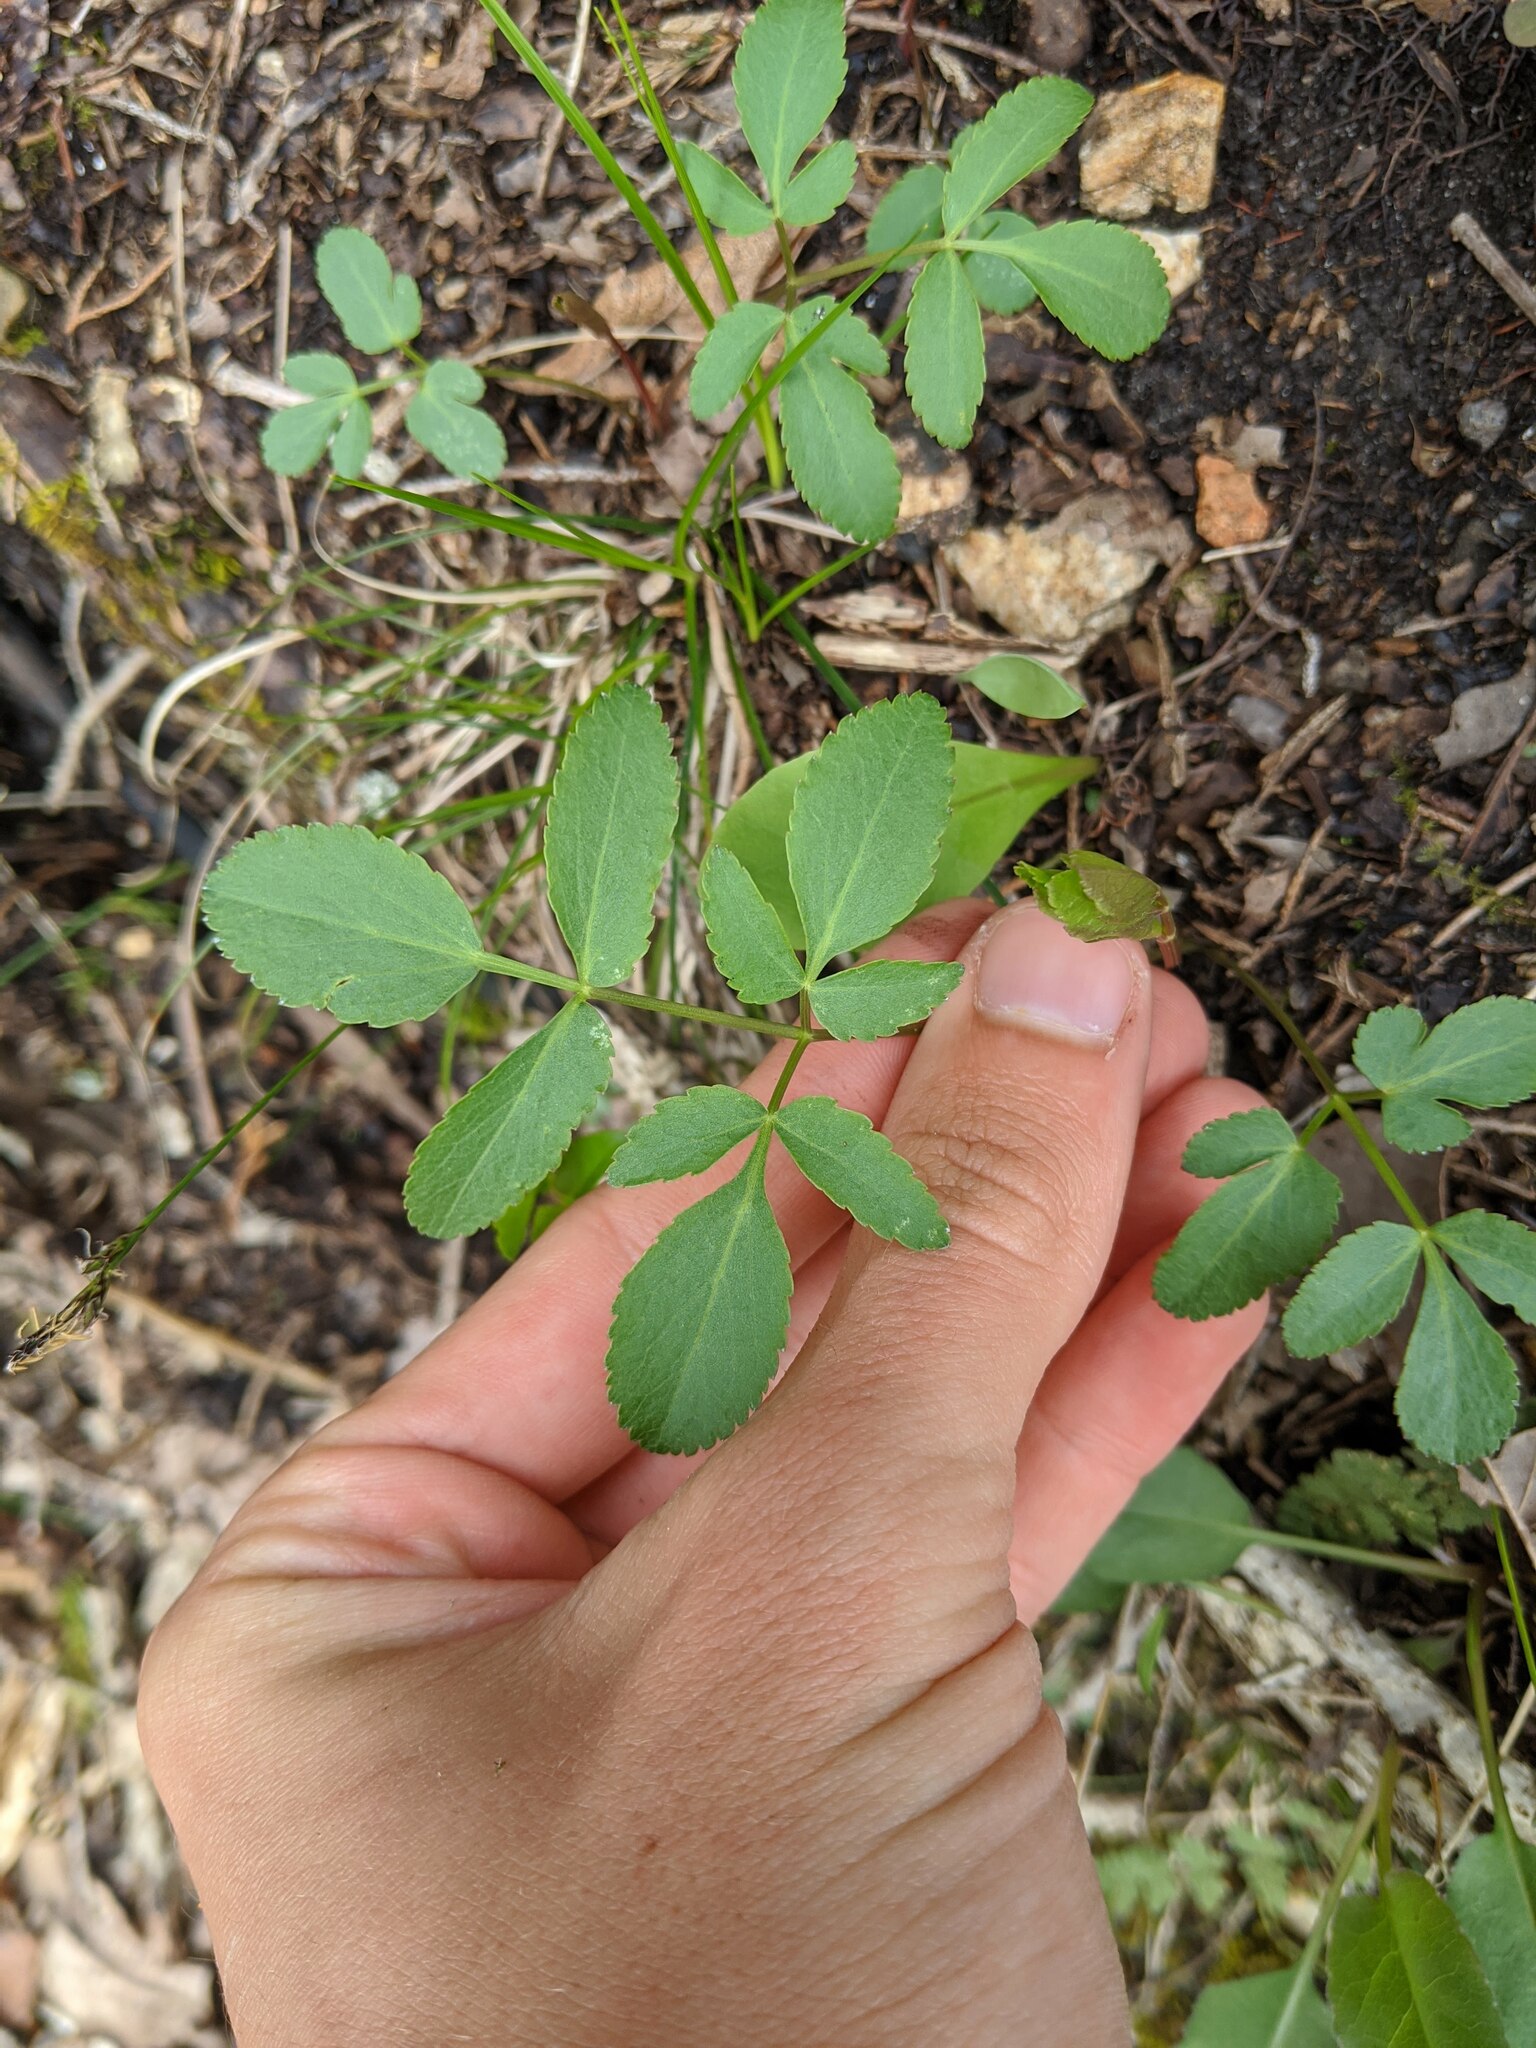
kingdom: Plantae
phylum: Tracheophyta
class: Magnoliopsida
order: Apiales
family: Apiaceae
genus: Angelica
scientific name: Angelica venenosa
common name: Hairy angelica
